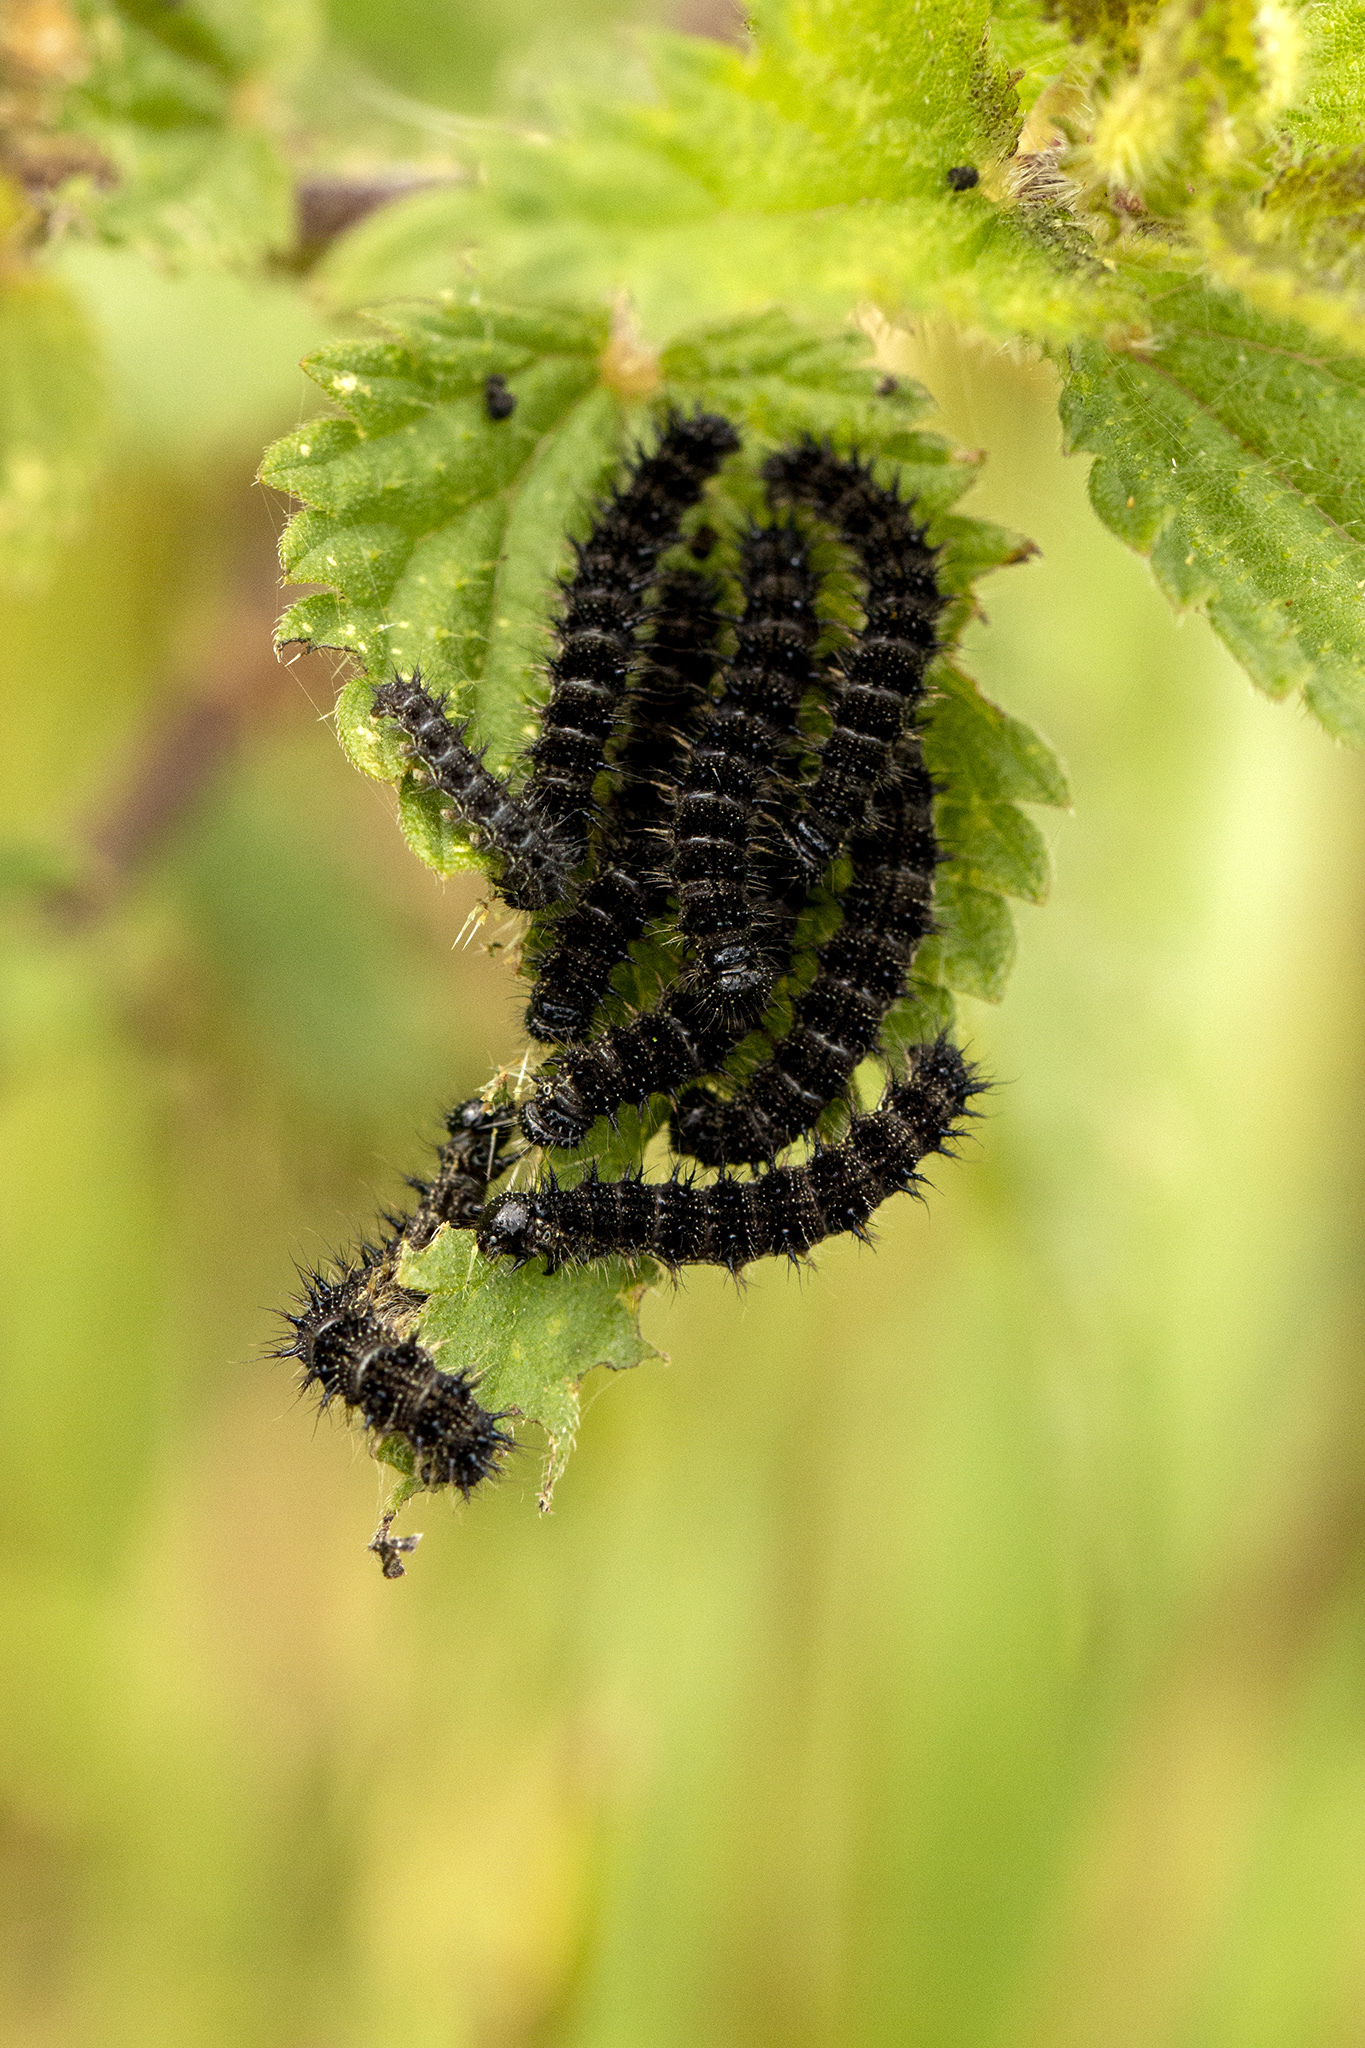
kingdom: Animalia
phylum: Arthropoda
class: Insecta
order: Lepidoptera
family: Nymphalidae
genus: Aglais
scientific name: Aglais urticae
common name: Small tortoiseshell
